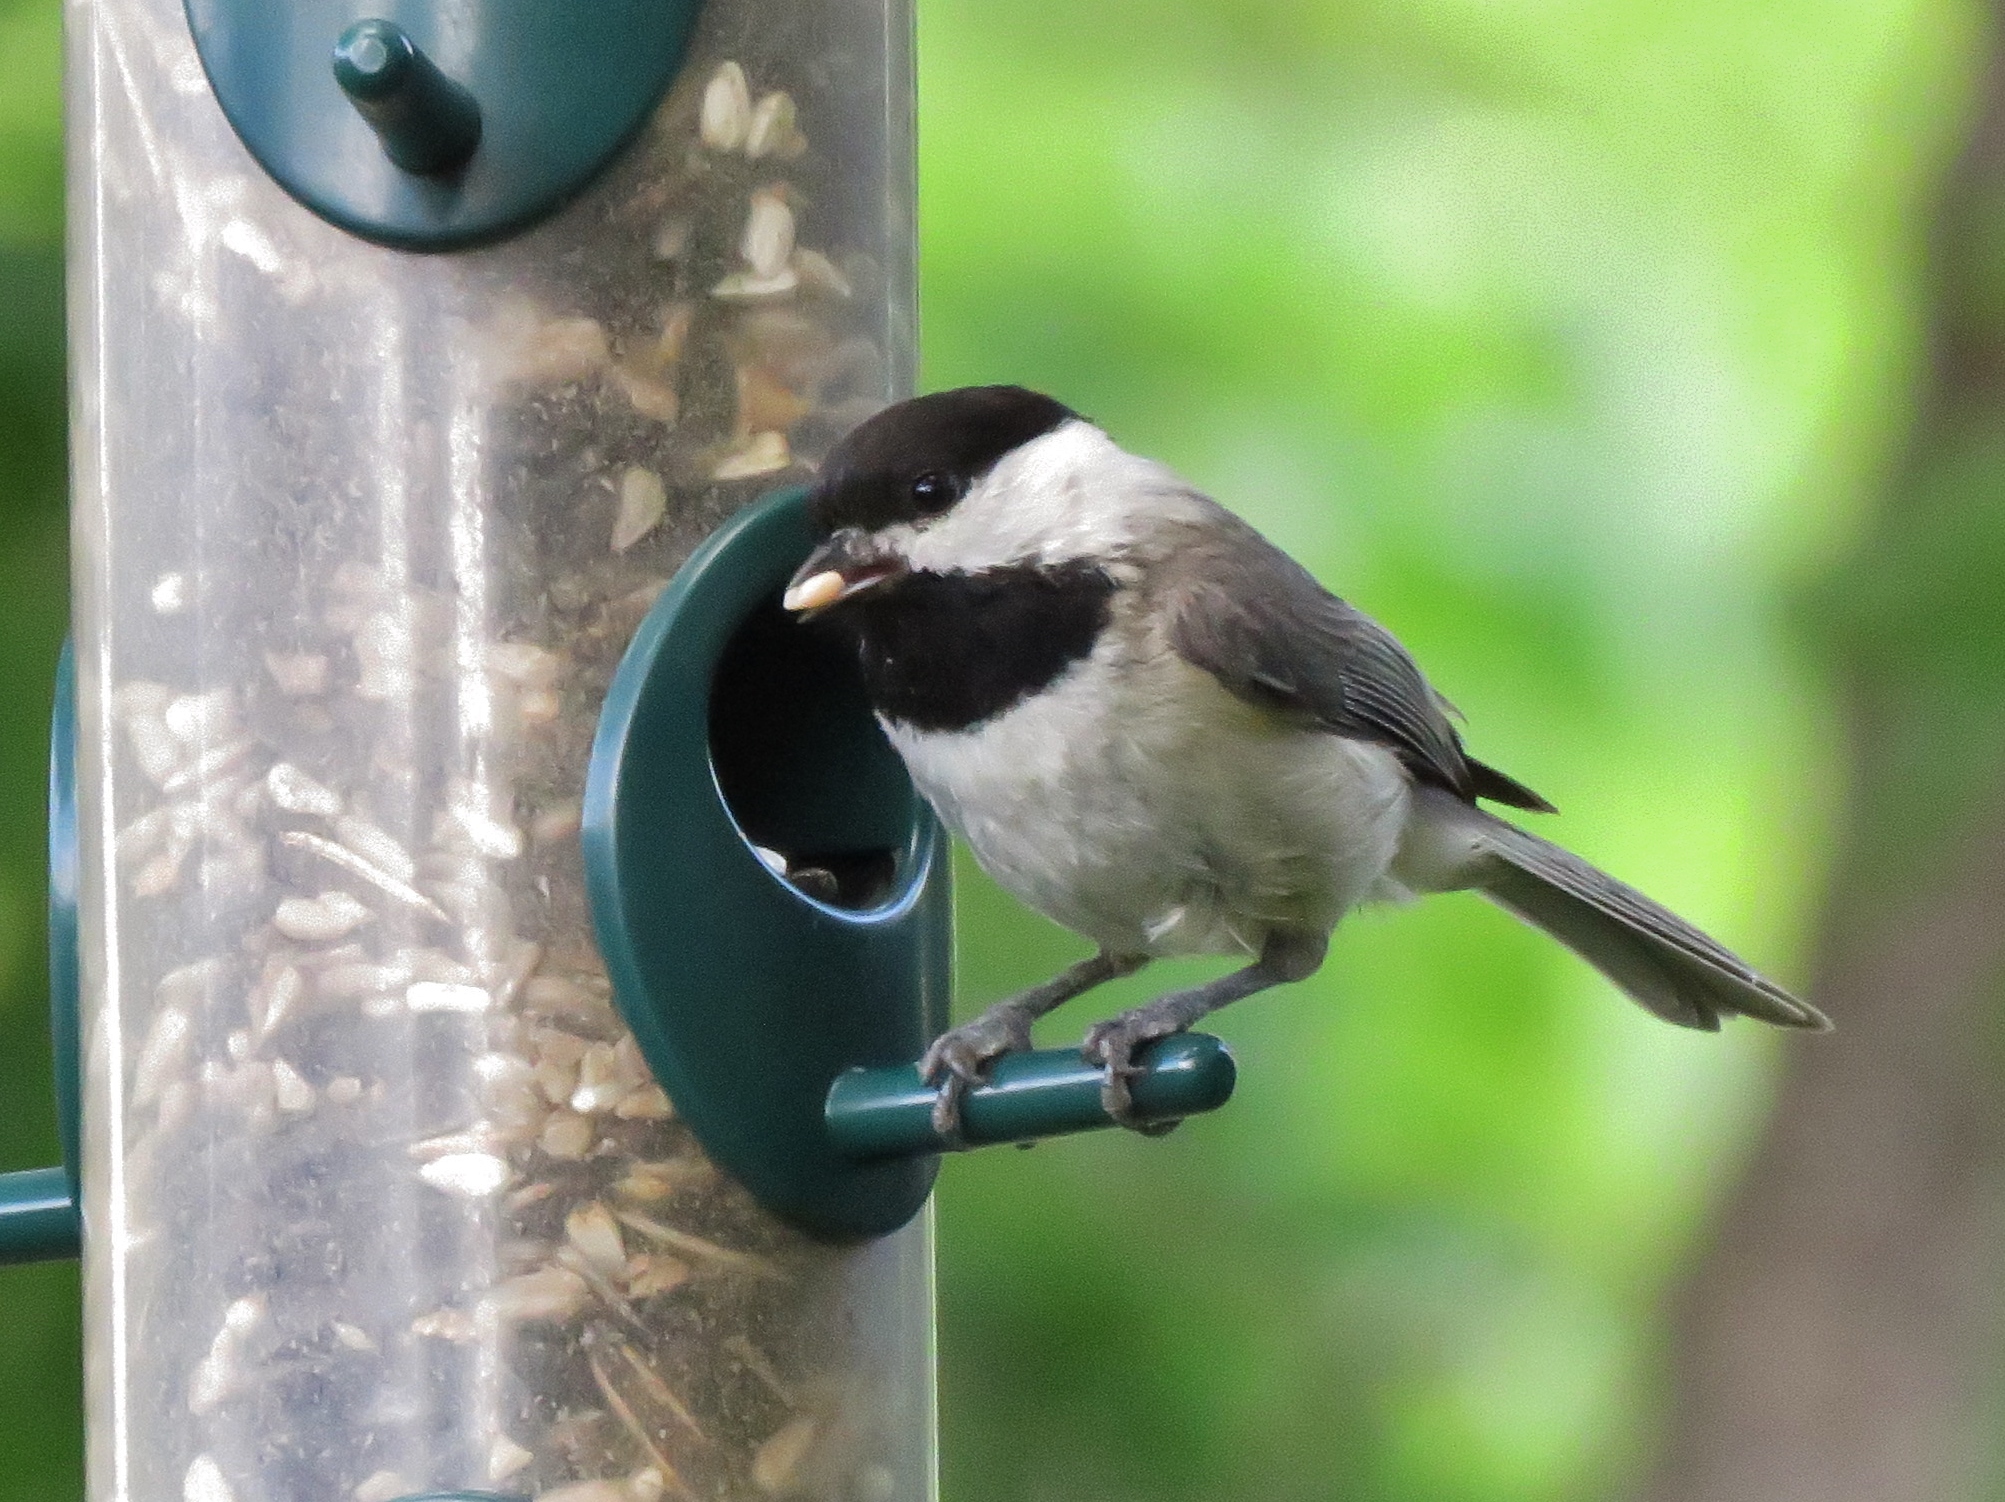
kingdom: Animalia
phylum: Chordata
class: Aves
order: Passeriformes
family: Paridae
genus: Poecile
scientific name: Poecile carolinensis
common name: Carolina chickadee
